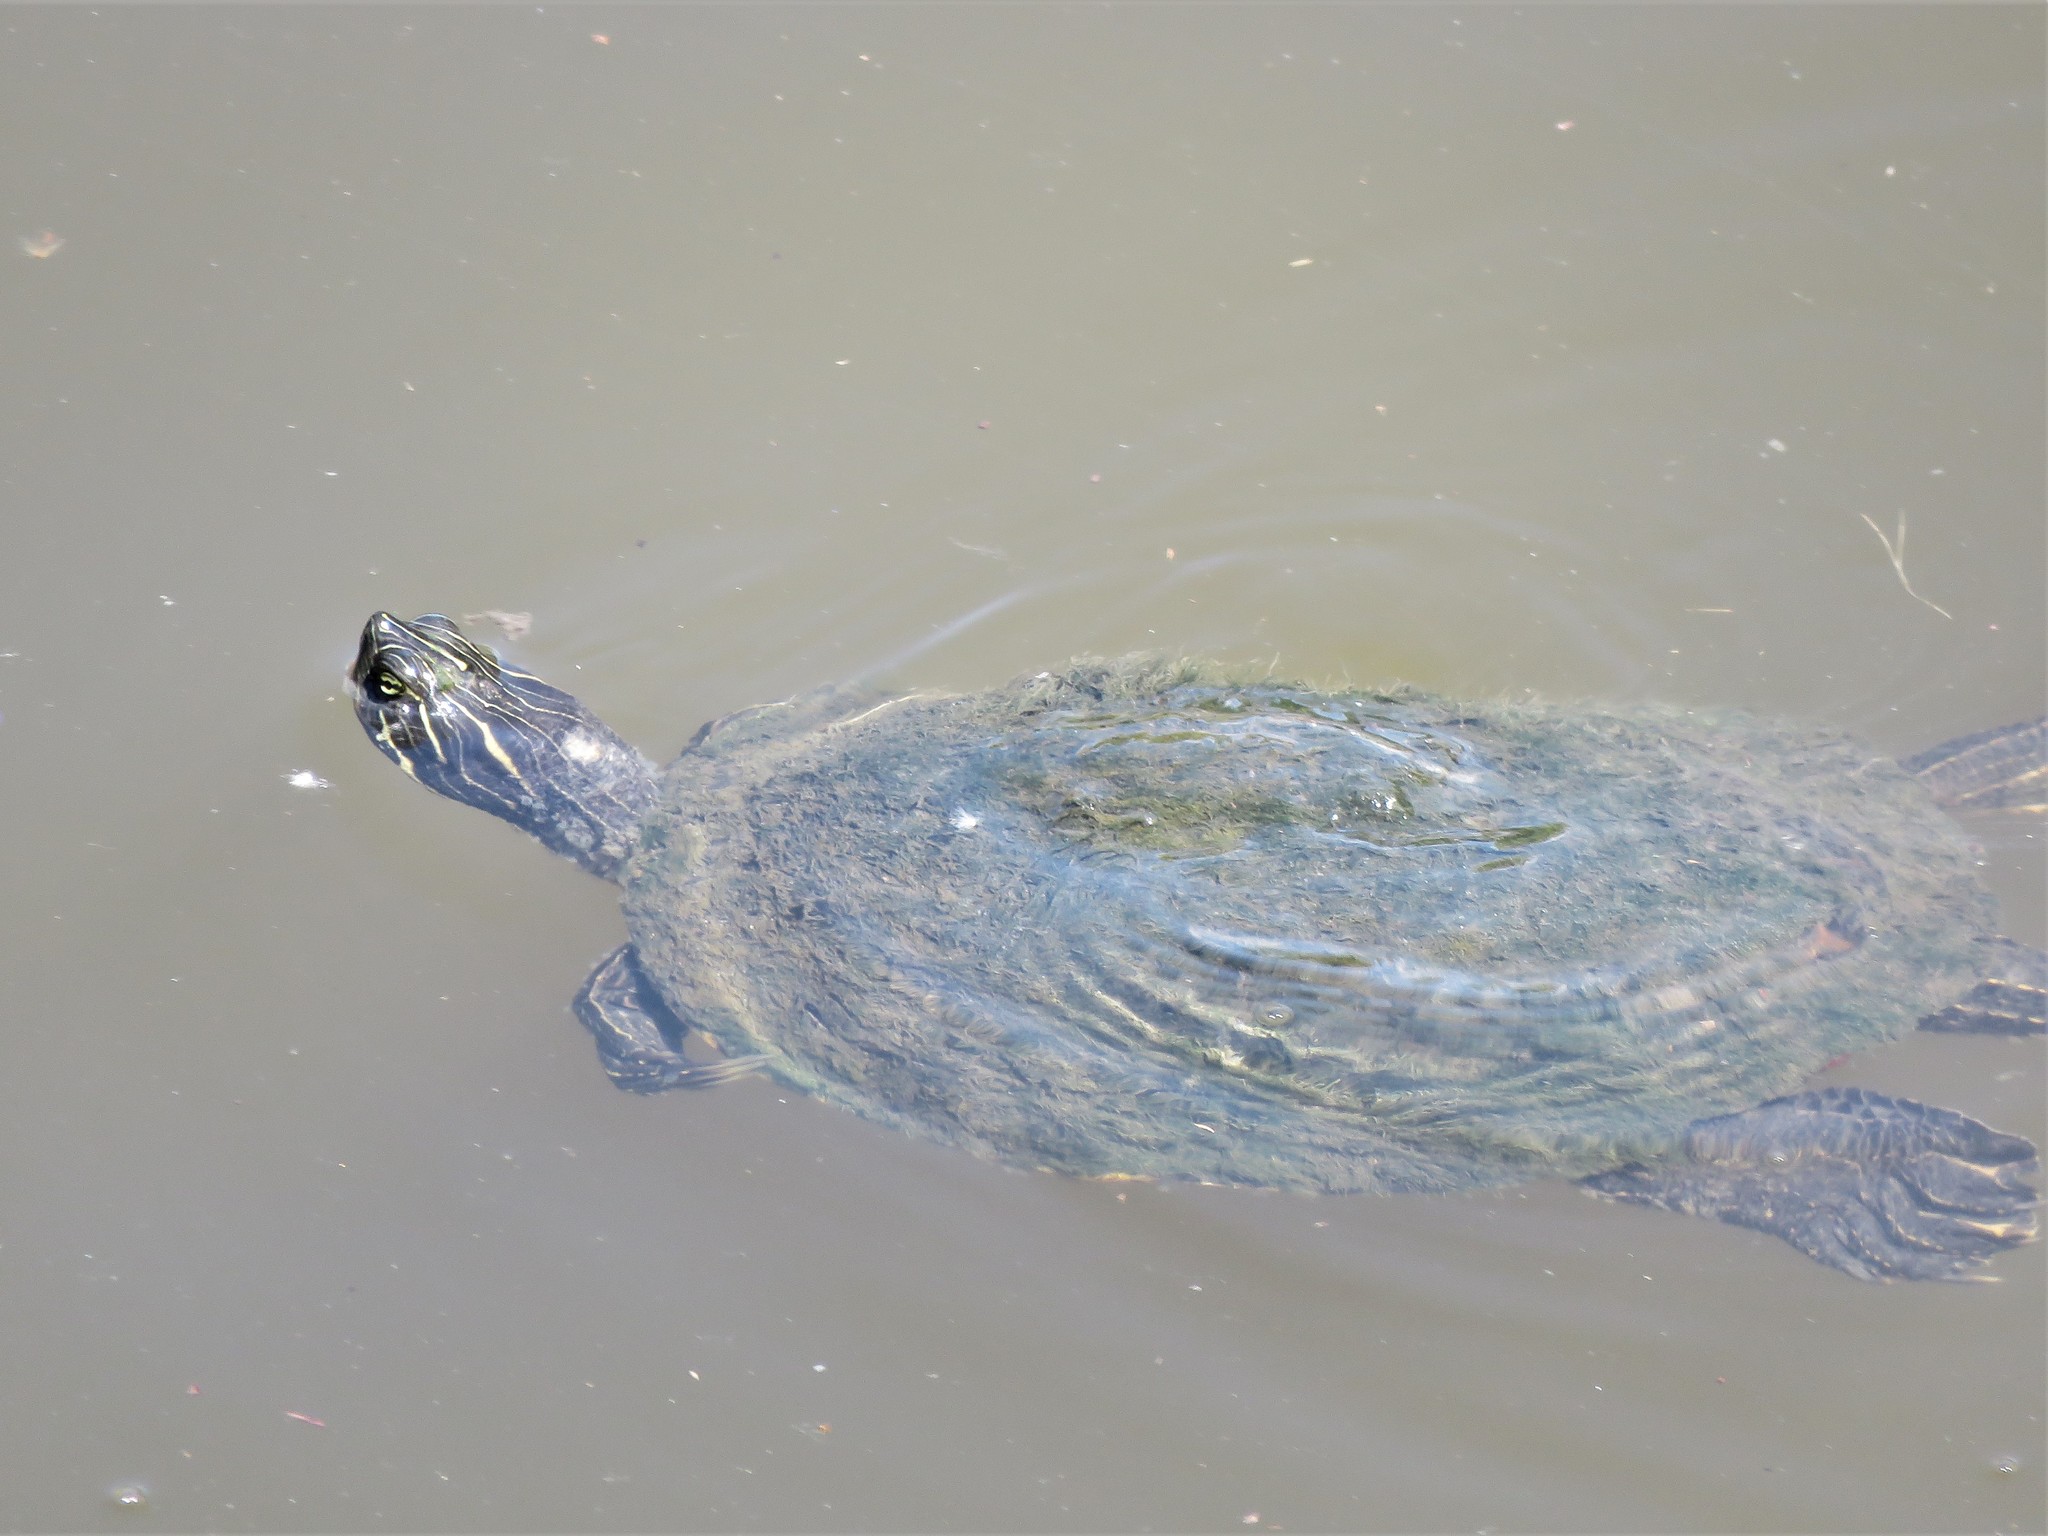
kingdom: Animalia
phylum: Chordata
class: Testudines
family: Emydidae
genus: Pseudemys
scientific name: Pseudemys concinna
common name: Eastern river cooter
